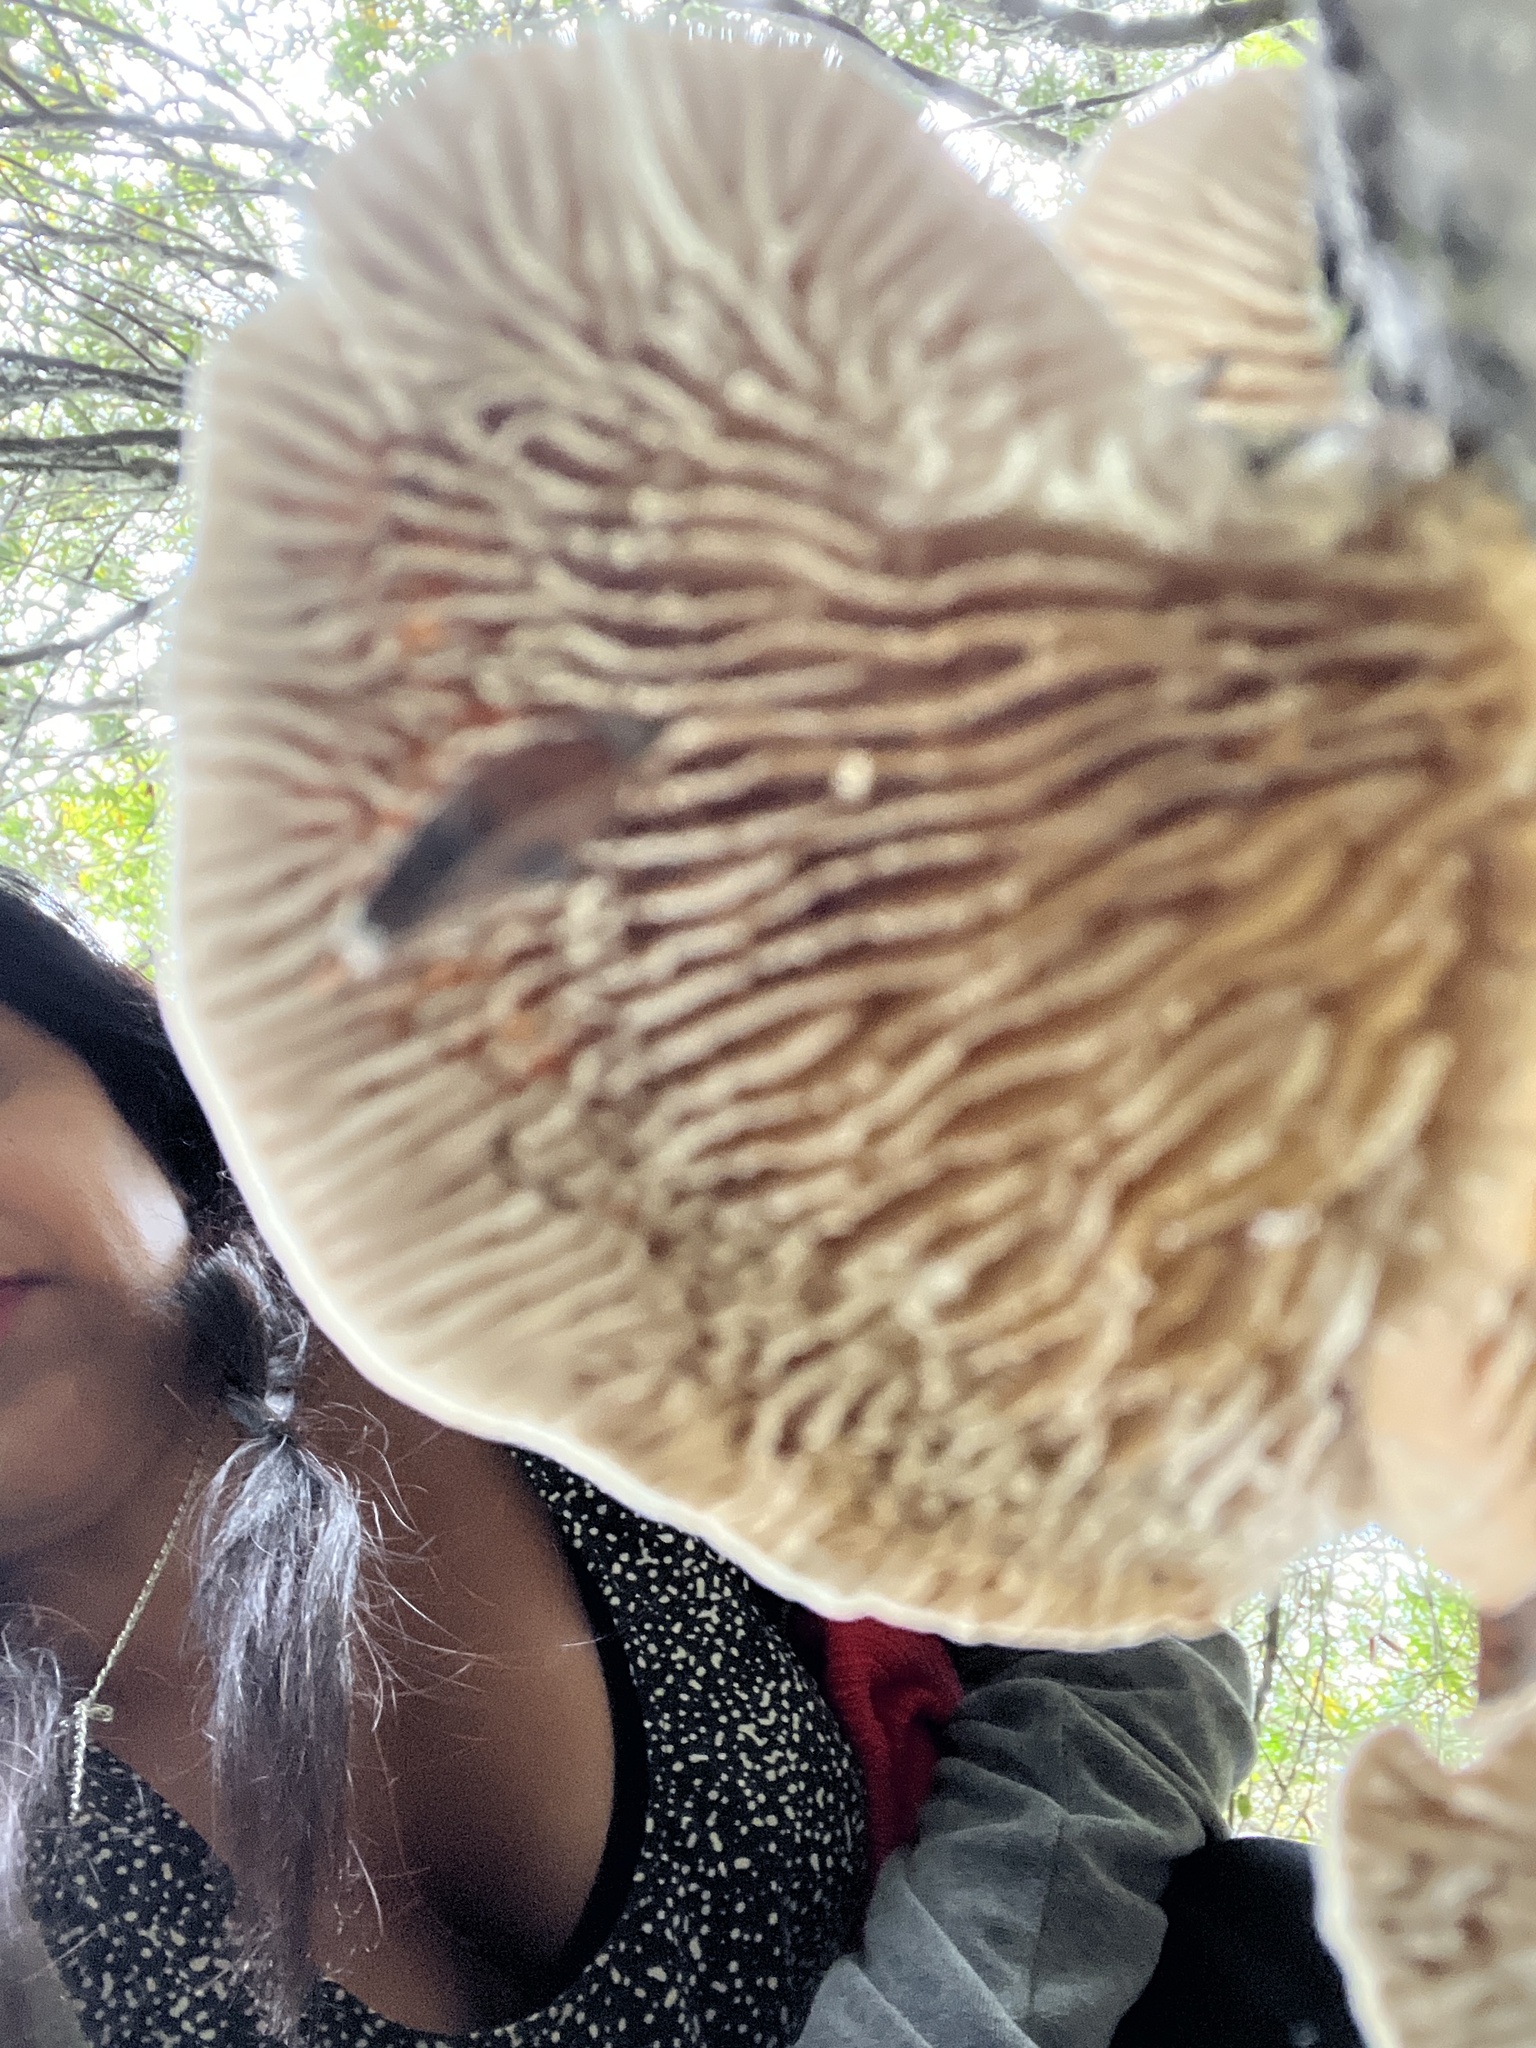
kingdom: Fungi
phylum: Basidiomycota
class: Agaricomycetes
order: Polyporales
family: Polyporaceae
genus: Lenzites
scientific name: Lenzites betulinus
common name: Birch mazegill
